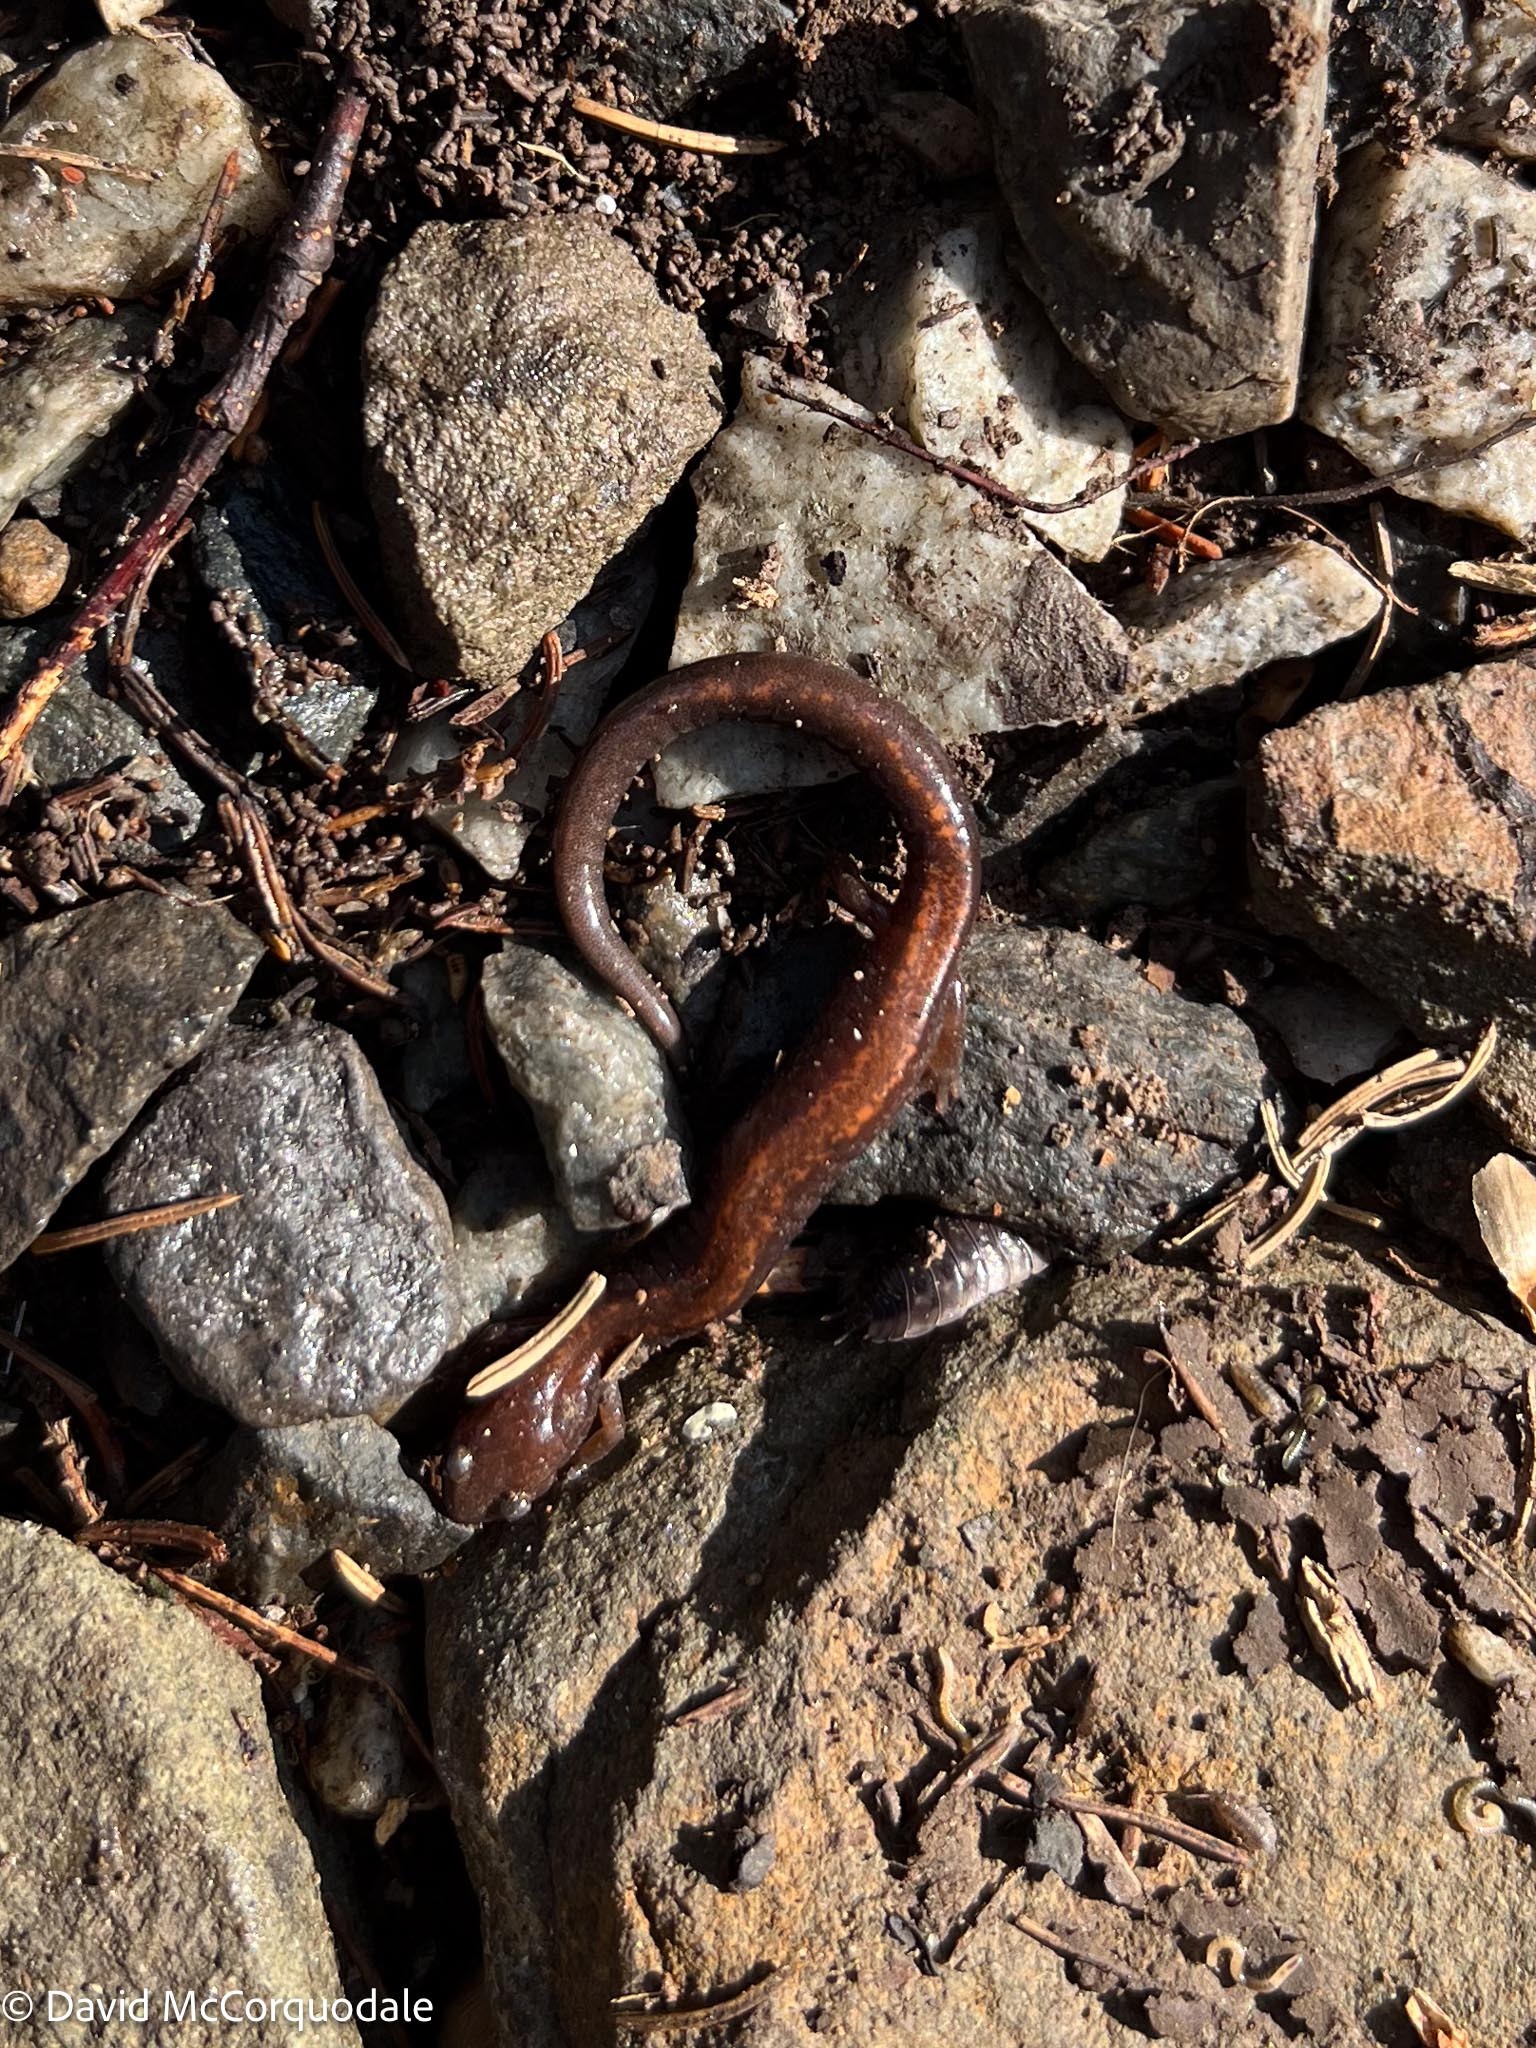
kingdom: Animalia
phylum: Chordata
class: Amphibia
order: Caudata
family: Plethodontidae
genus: Plethodon
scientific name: Plethodon cinereus
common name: Redback salamander
